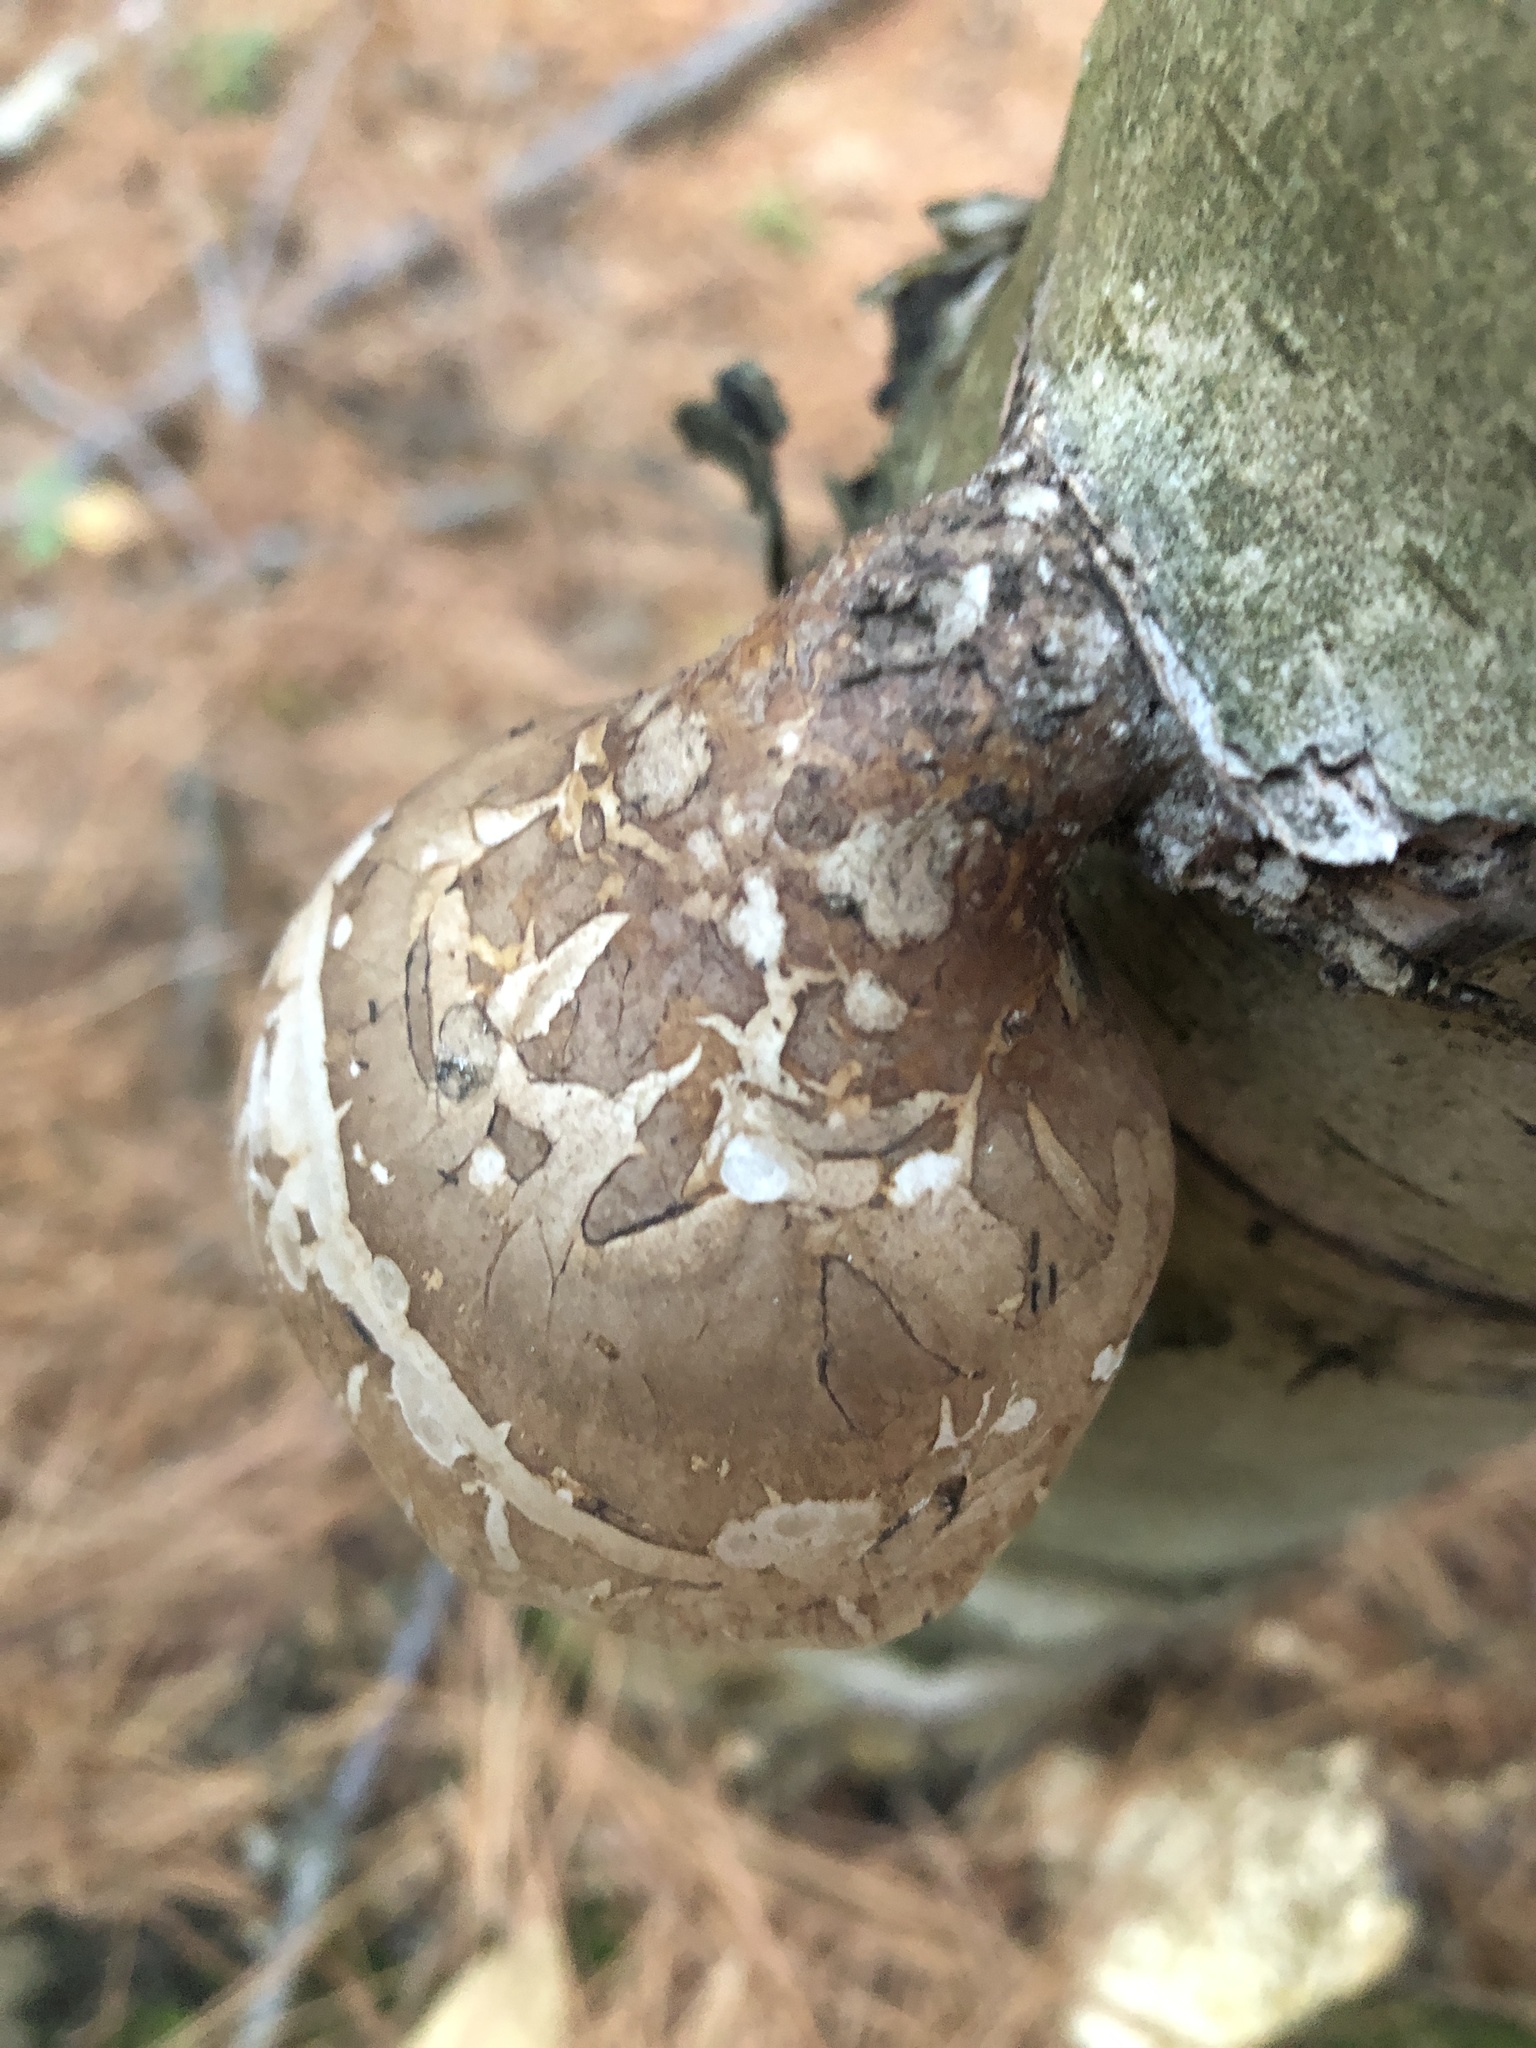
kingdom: Fungi
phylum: Basidiomycota
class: Agaricomycetes
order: Polyporales
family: Fomitopsidaceae
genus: Fomitopsis
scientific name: Fomitopsis betulina
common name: Birch polypore
